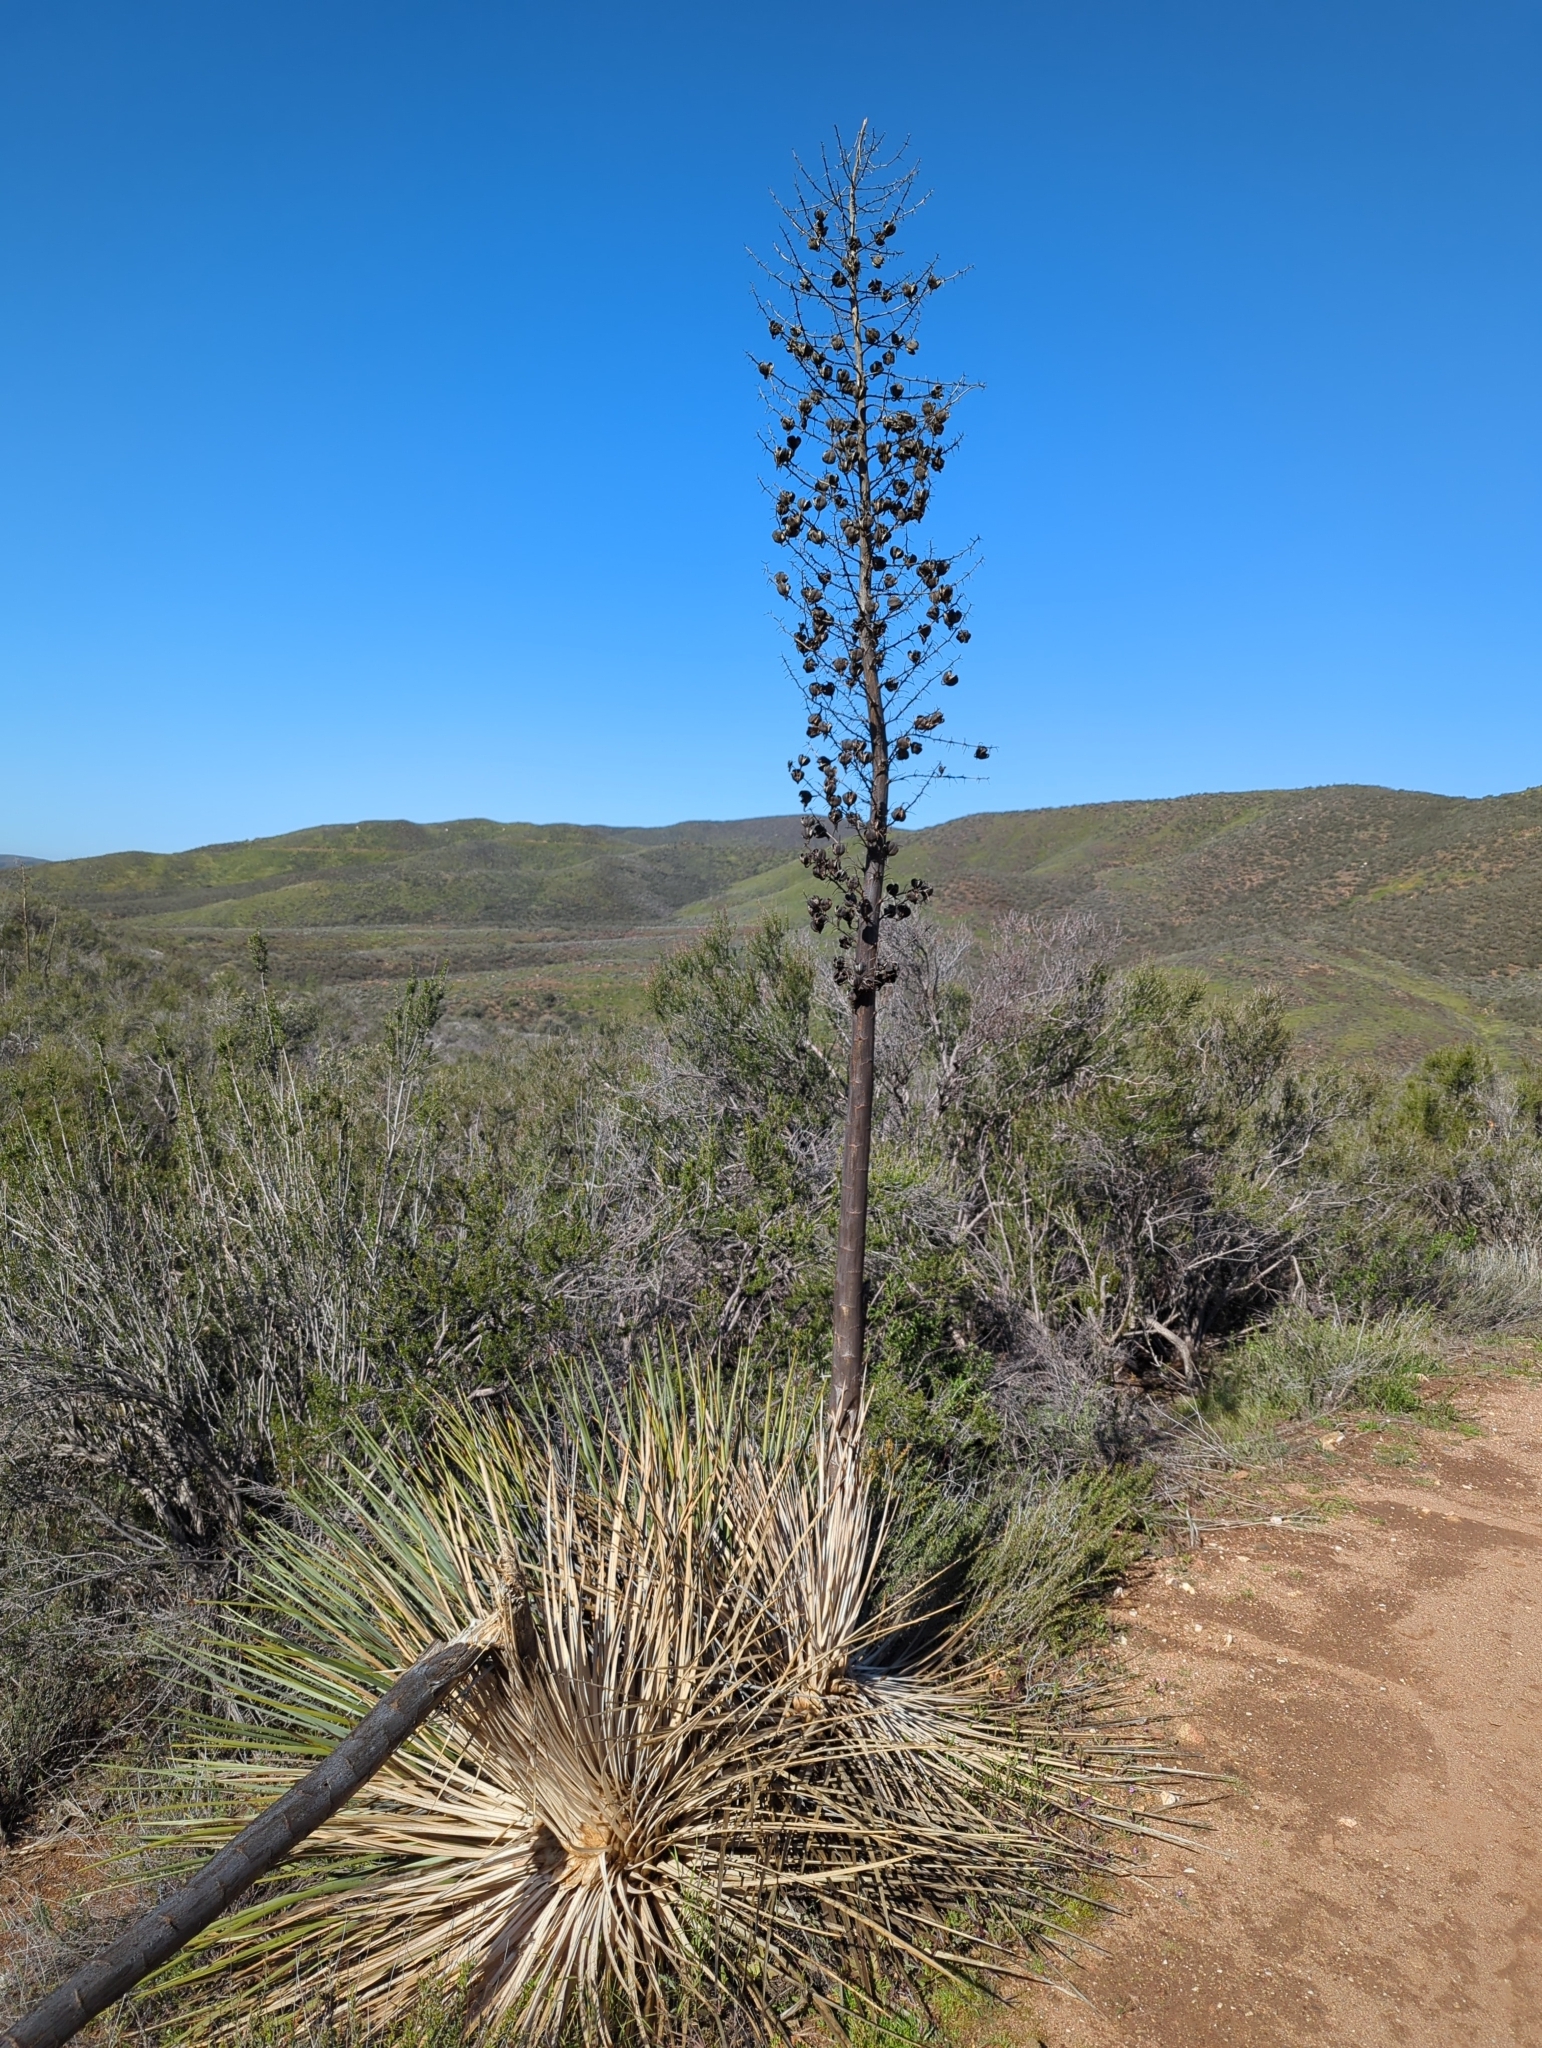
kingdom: Plantae
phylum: Tracheophyta
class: Liliopsida
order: Asparagales
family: Asparagaceae
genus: Hesperoyucca
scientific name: Hesperoyucca whipplei
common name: Our lord's-candle
